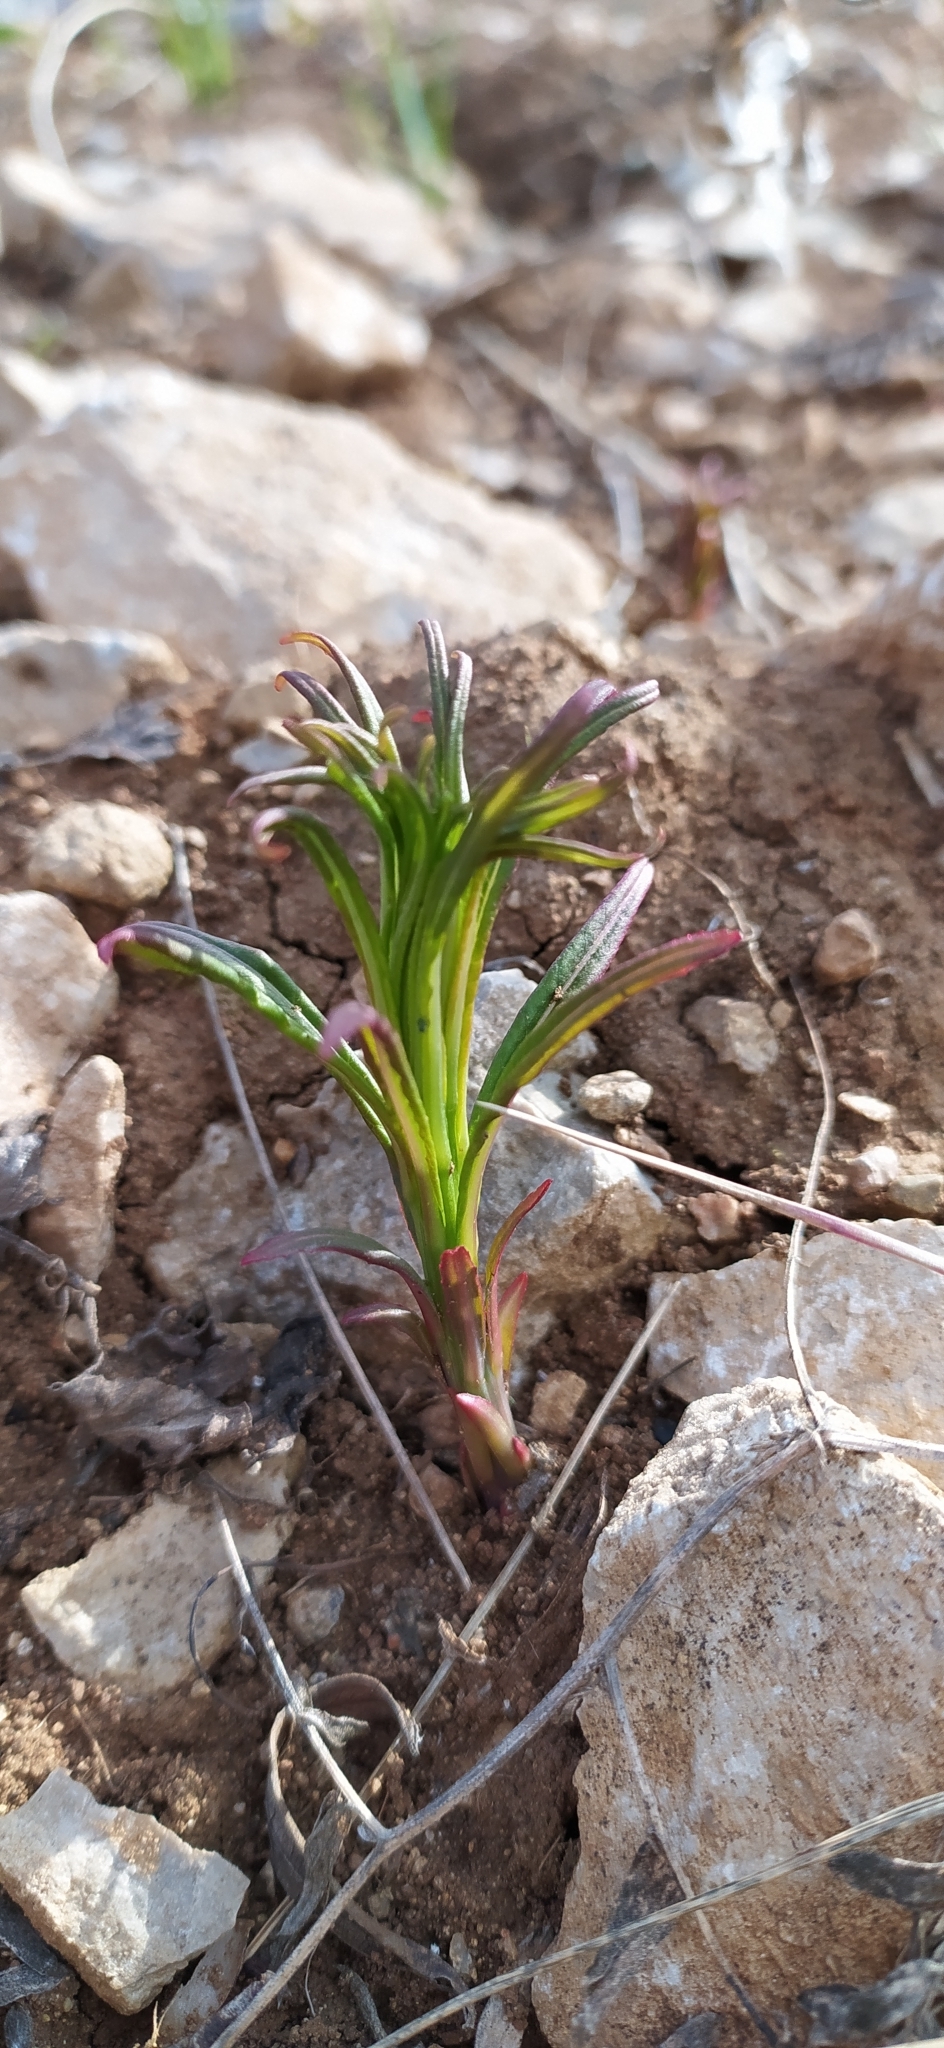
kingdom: Plantae
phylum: Tracheophyta
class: Magnoliopsida
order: Myrtales
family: Onagraceae
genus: Chamaenerion
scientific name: Chamaenerion angustifolium
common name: Fireweed
